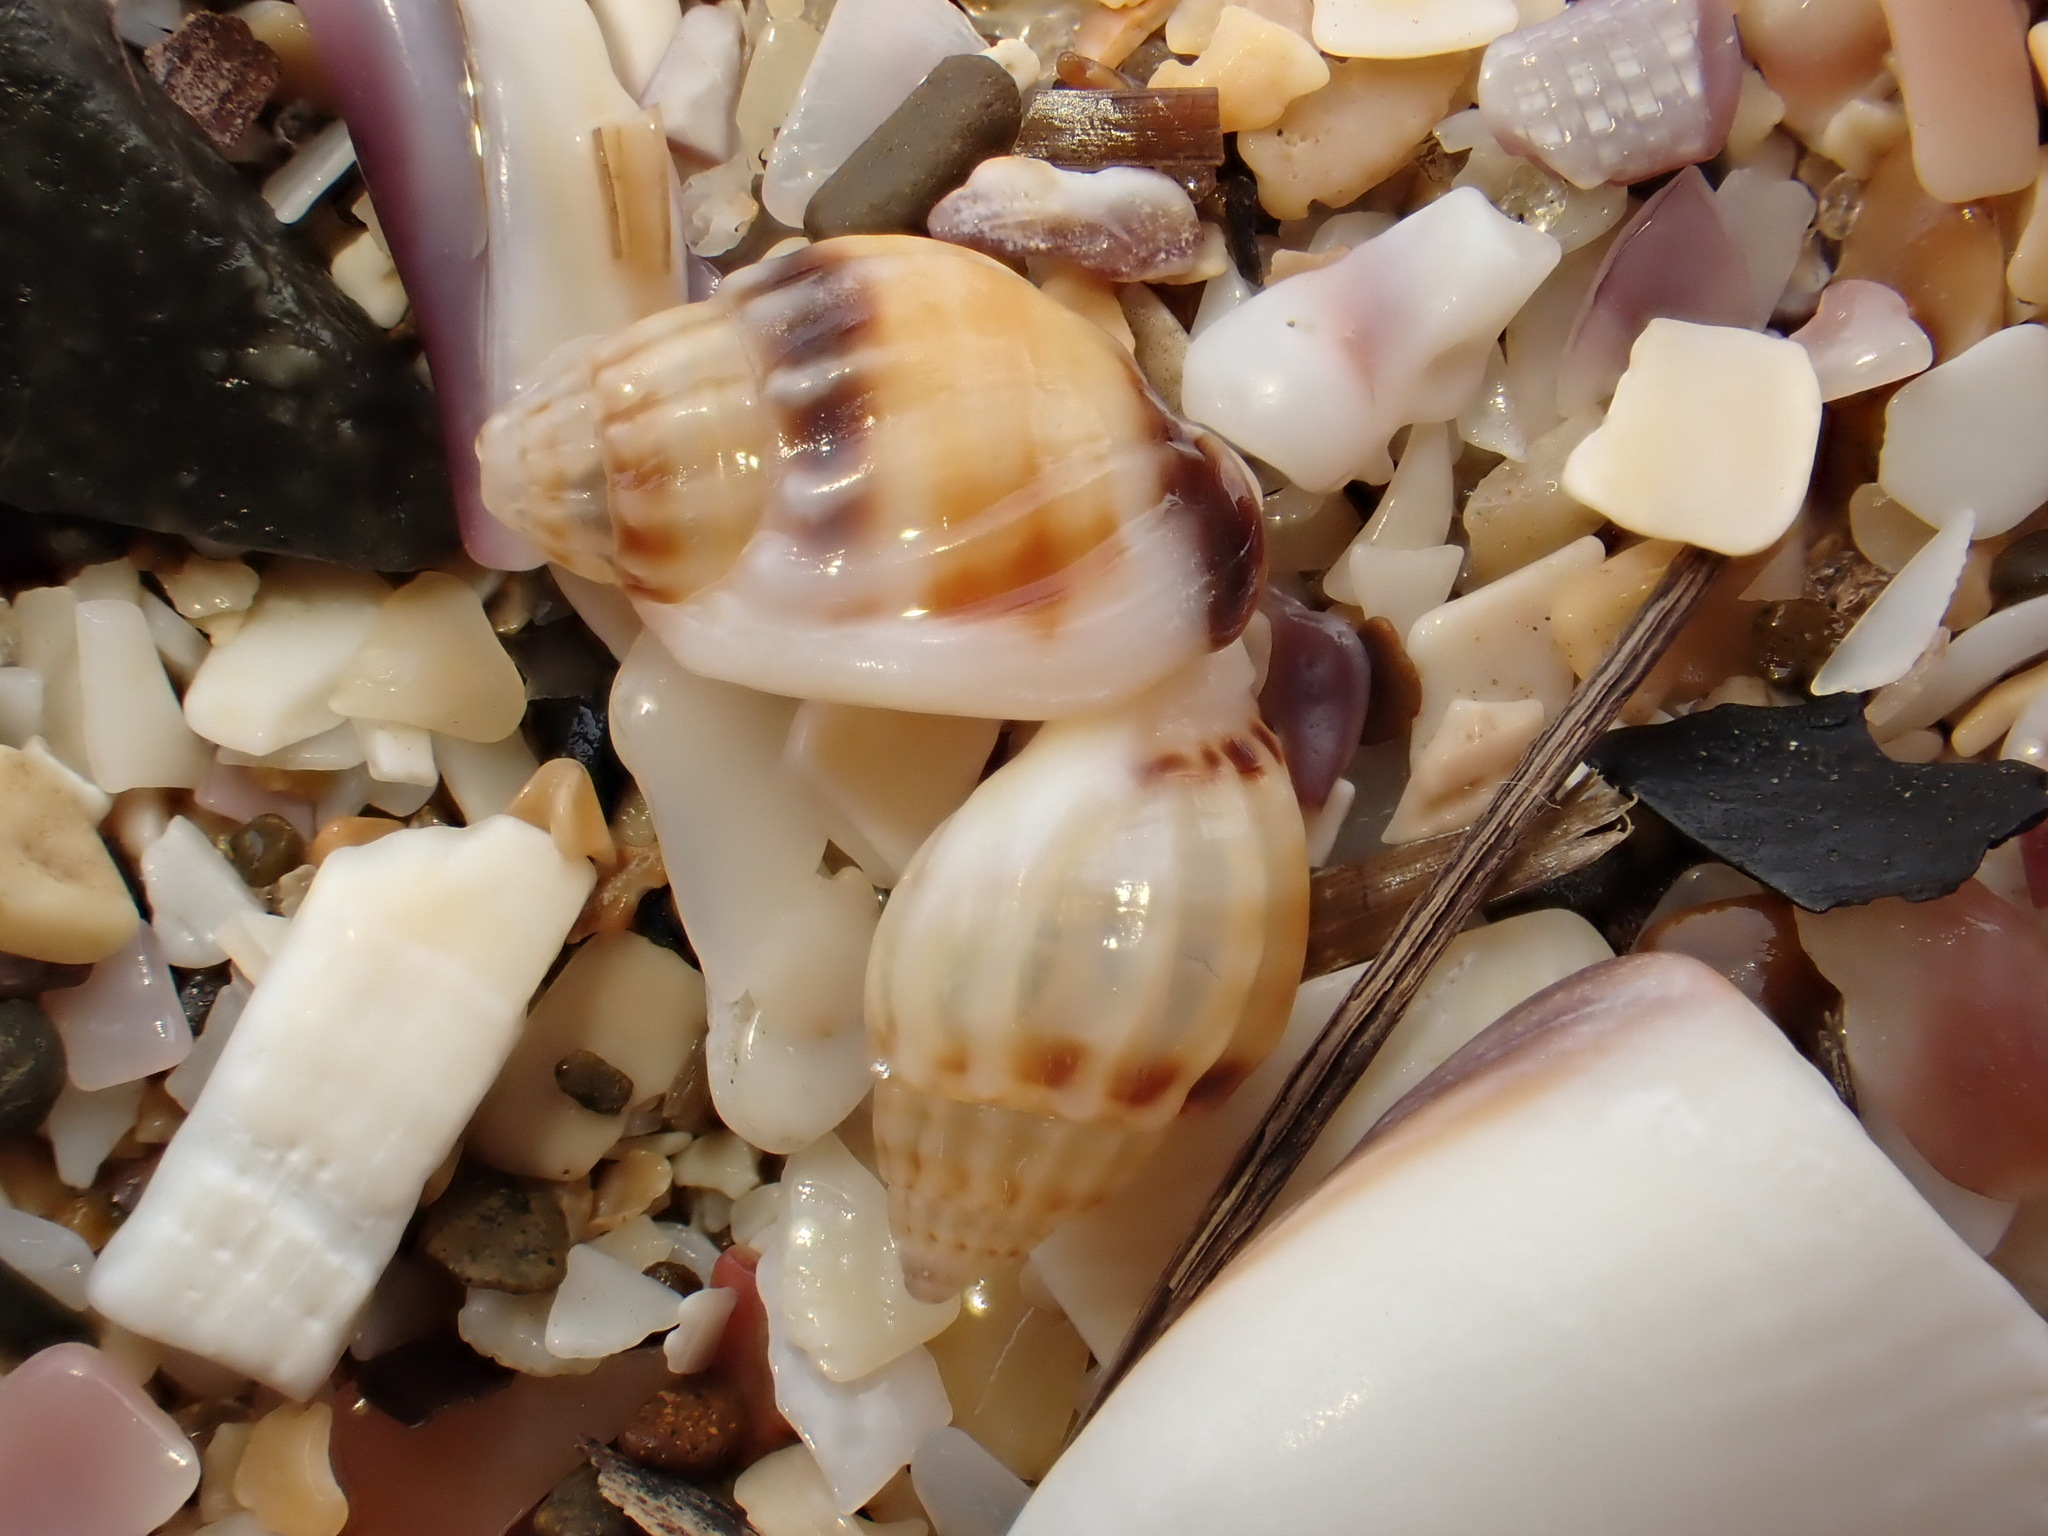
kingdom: Animalia
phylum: Mollusca
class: Gastropoda
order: Neogastropoda
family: Nassariidae
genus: Tritia
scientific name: Tritia burchardi
